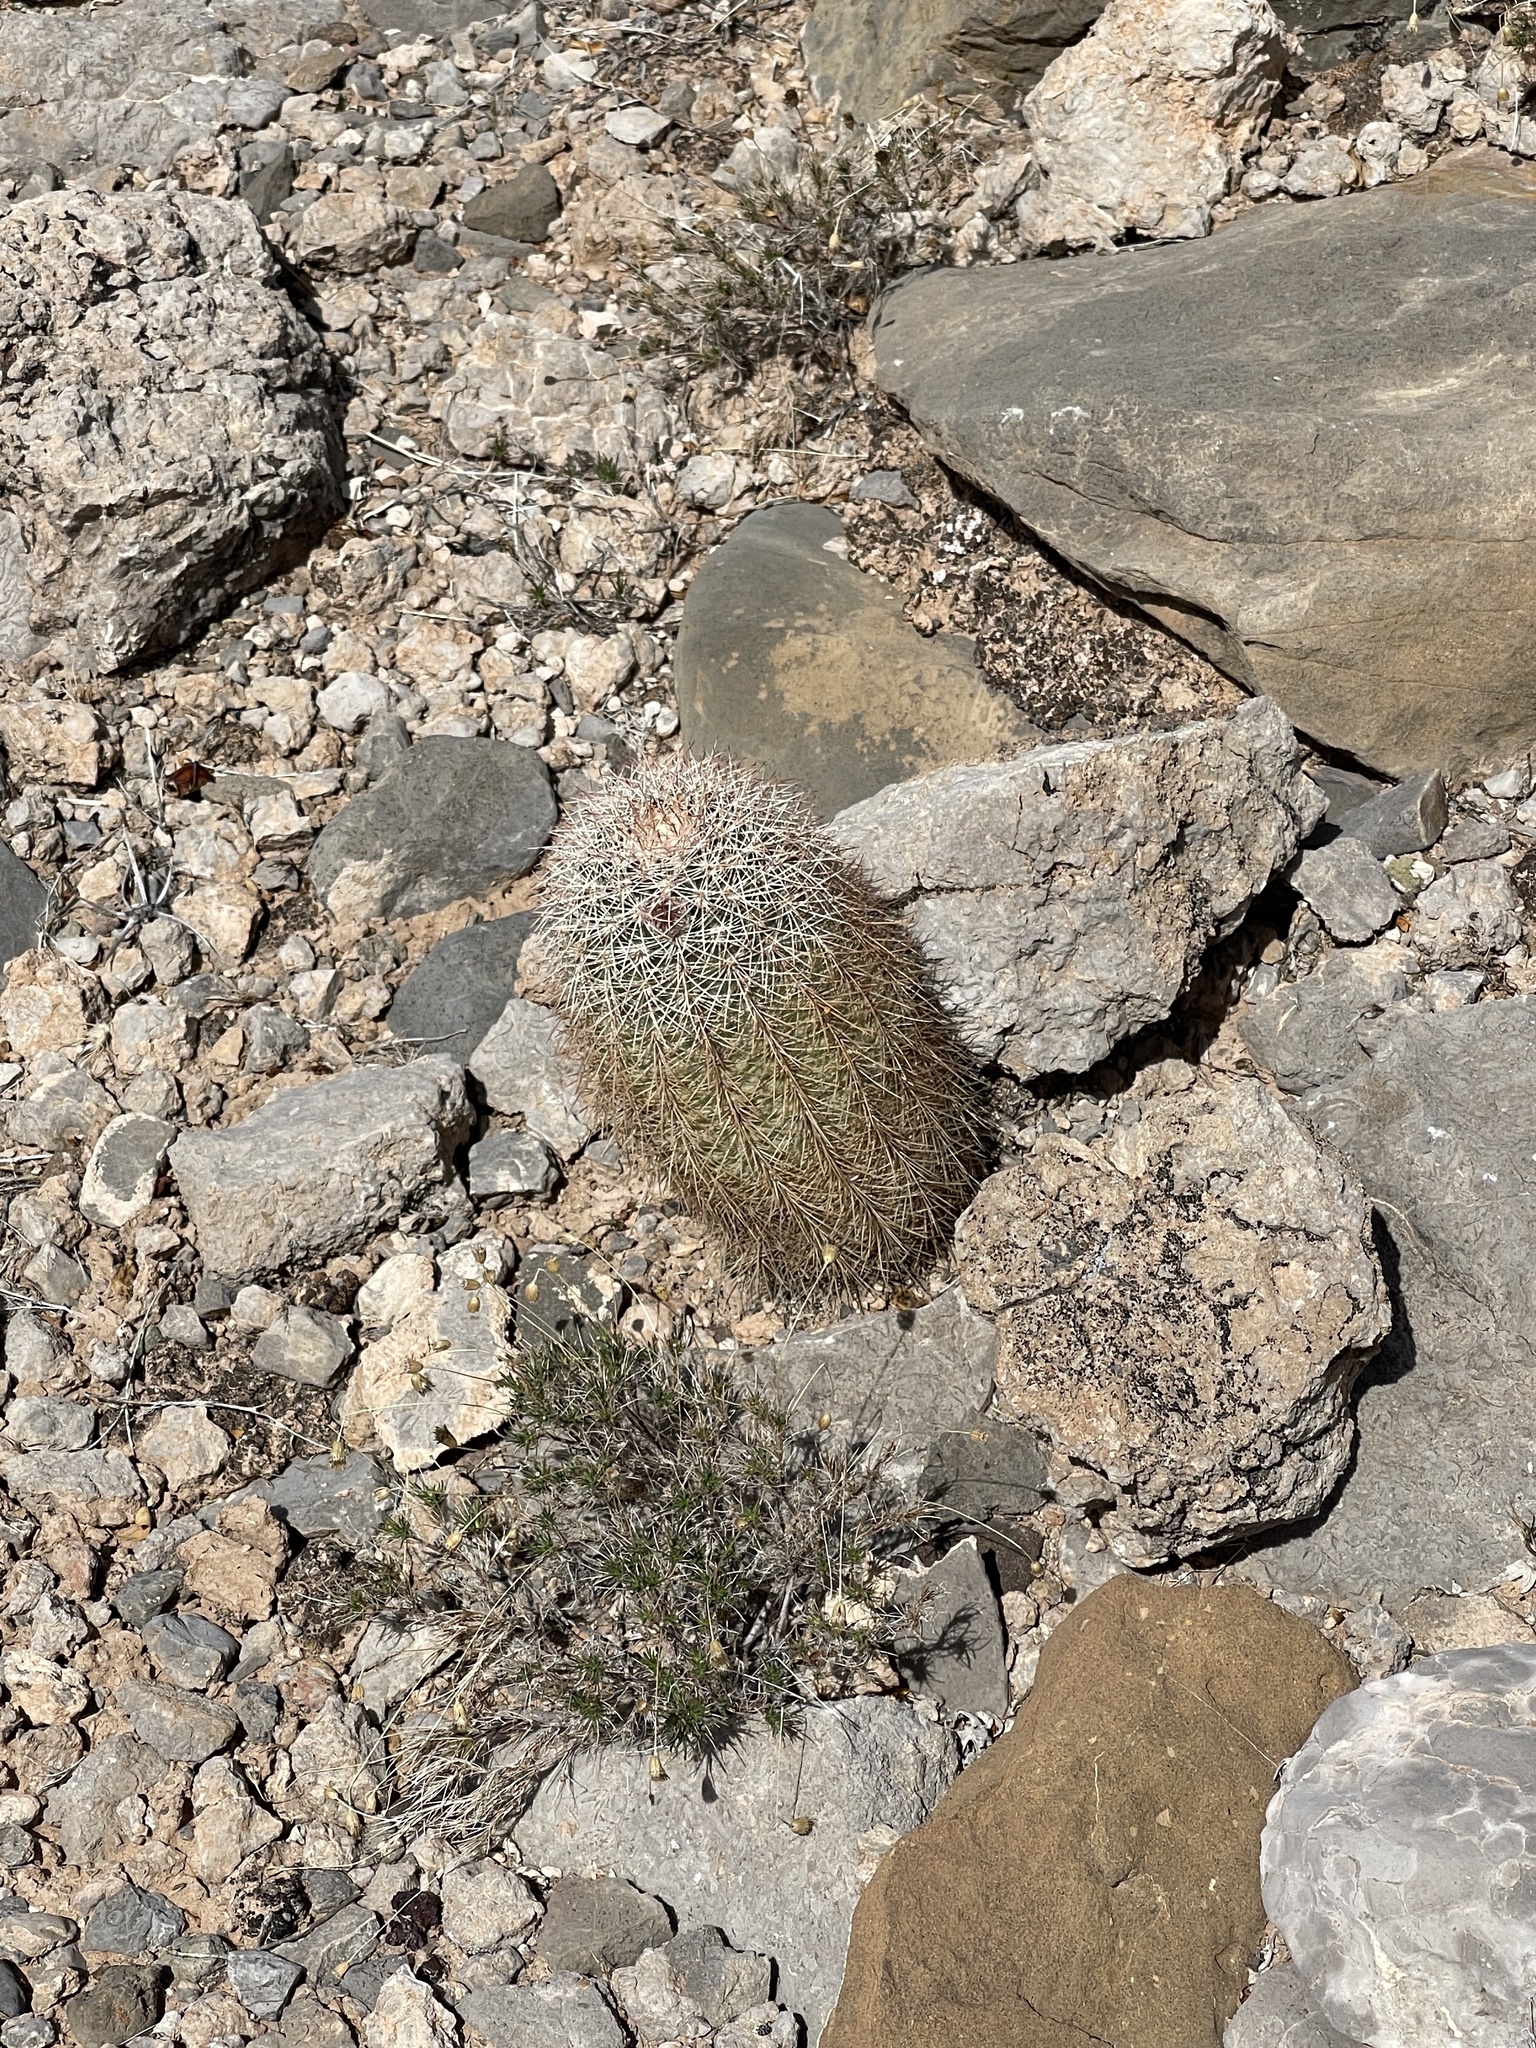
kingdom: Plantae
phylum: Tracheophyta
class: Magnoliopsida
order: Caryophyllales
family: Cactaceae
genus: Echinocereus
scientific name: Echinocereus dasyacanthus
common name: Spiny hedgehog cactus
